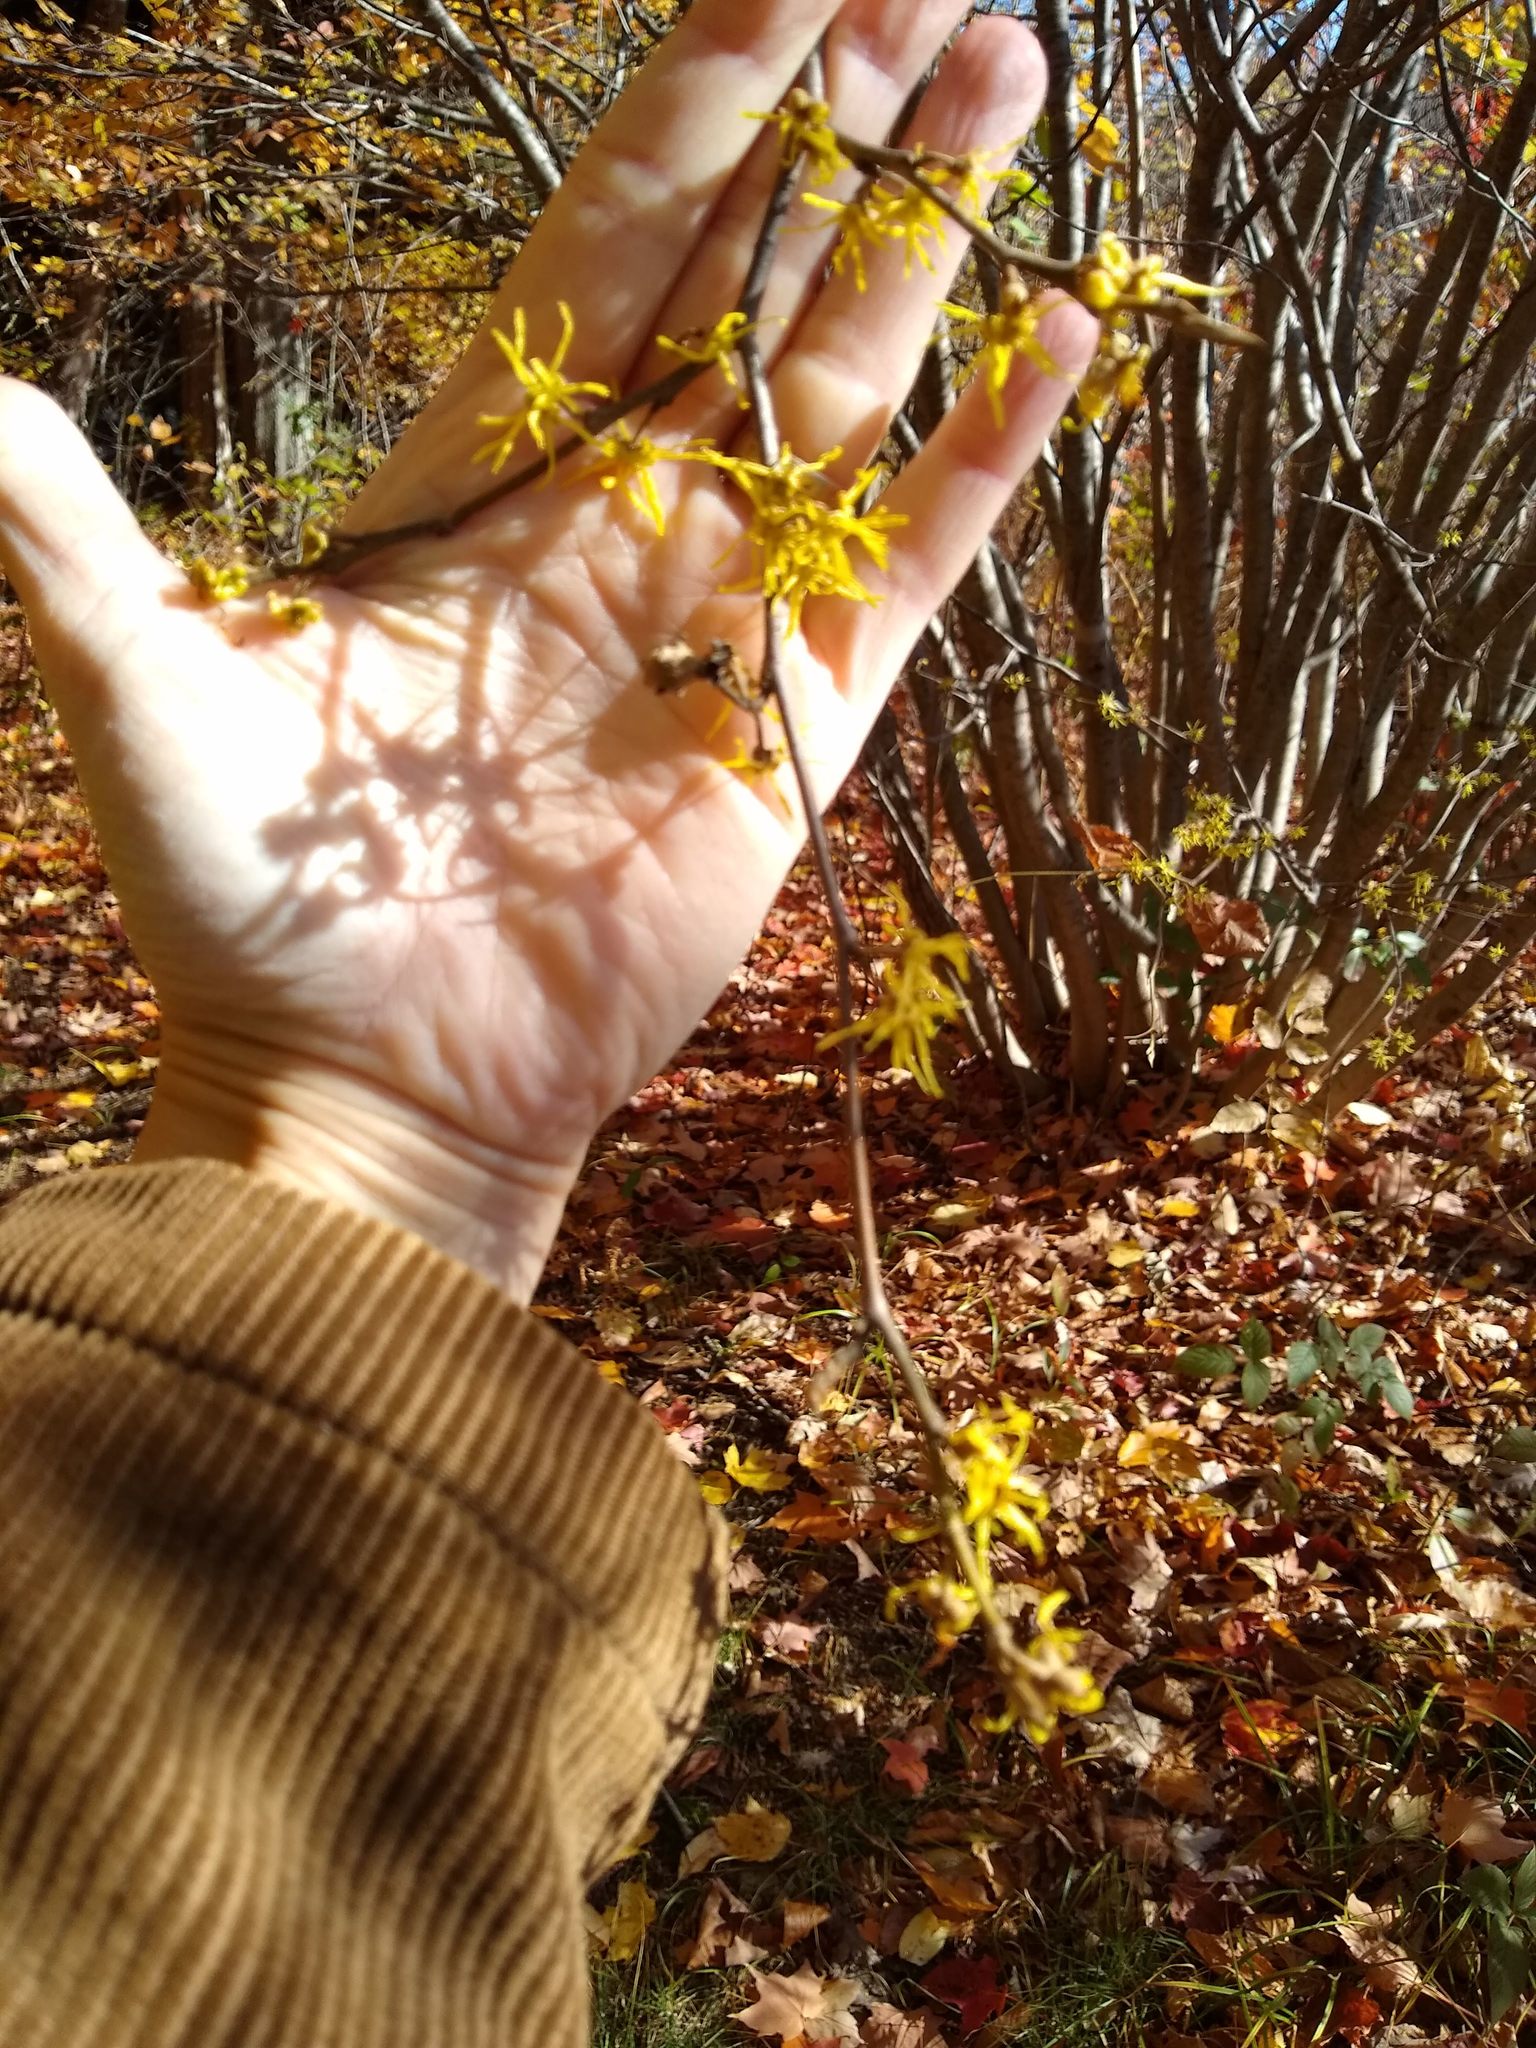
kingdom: Plantae
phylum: Tracheophyta
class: Magnoliopsida
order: Saxifragales
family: Hamamelidaceae
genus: Hamamelis
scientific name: Hamamelis virginiana
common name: Witch-hazel
